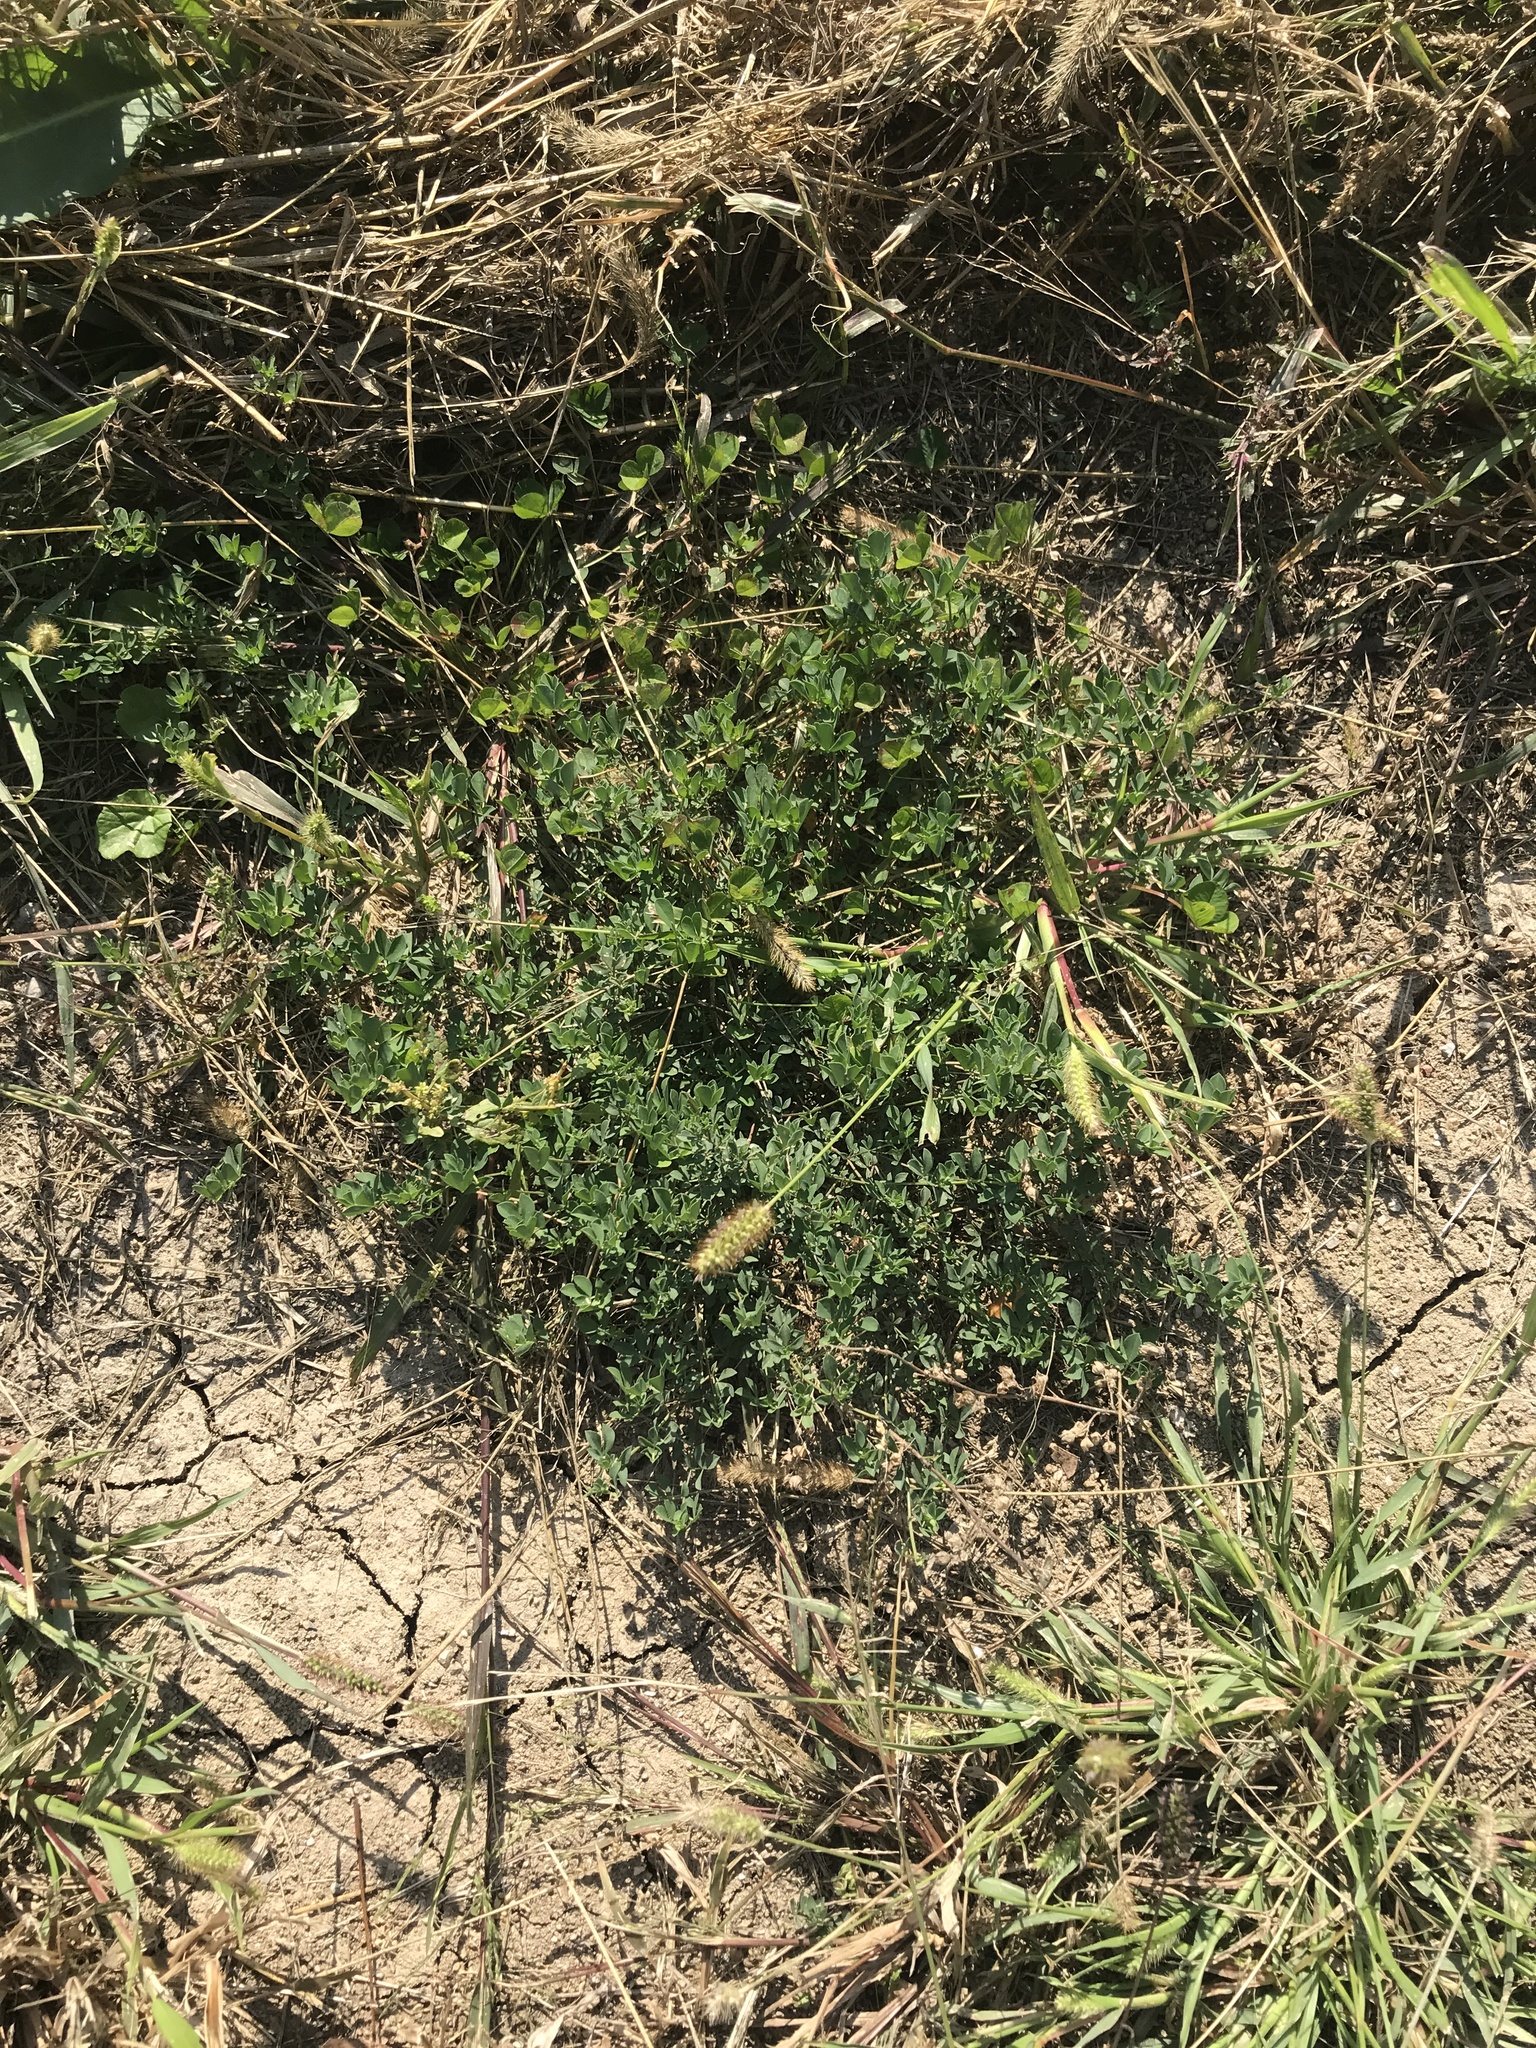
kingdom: Plantae
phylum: Tracheophyta
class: Magnoliopsida
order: Fabales
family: Fabaceae
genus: Lotus
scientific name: Lotus corniculatus
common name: Common bird's-foot-trefoil
